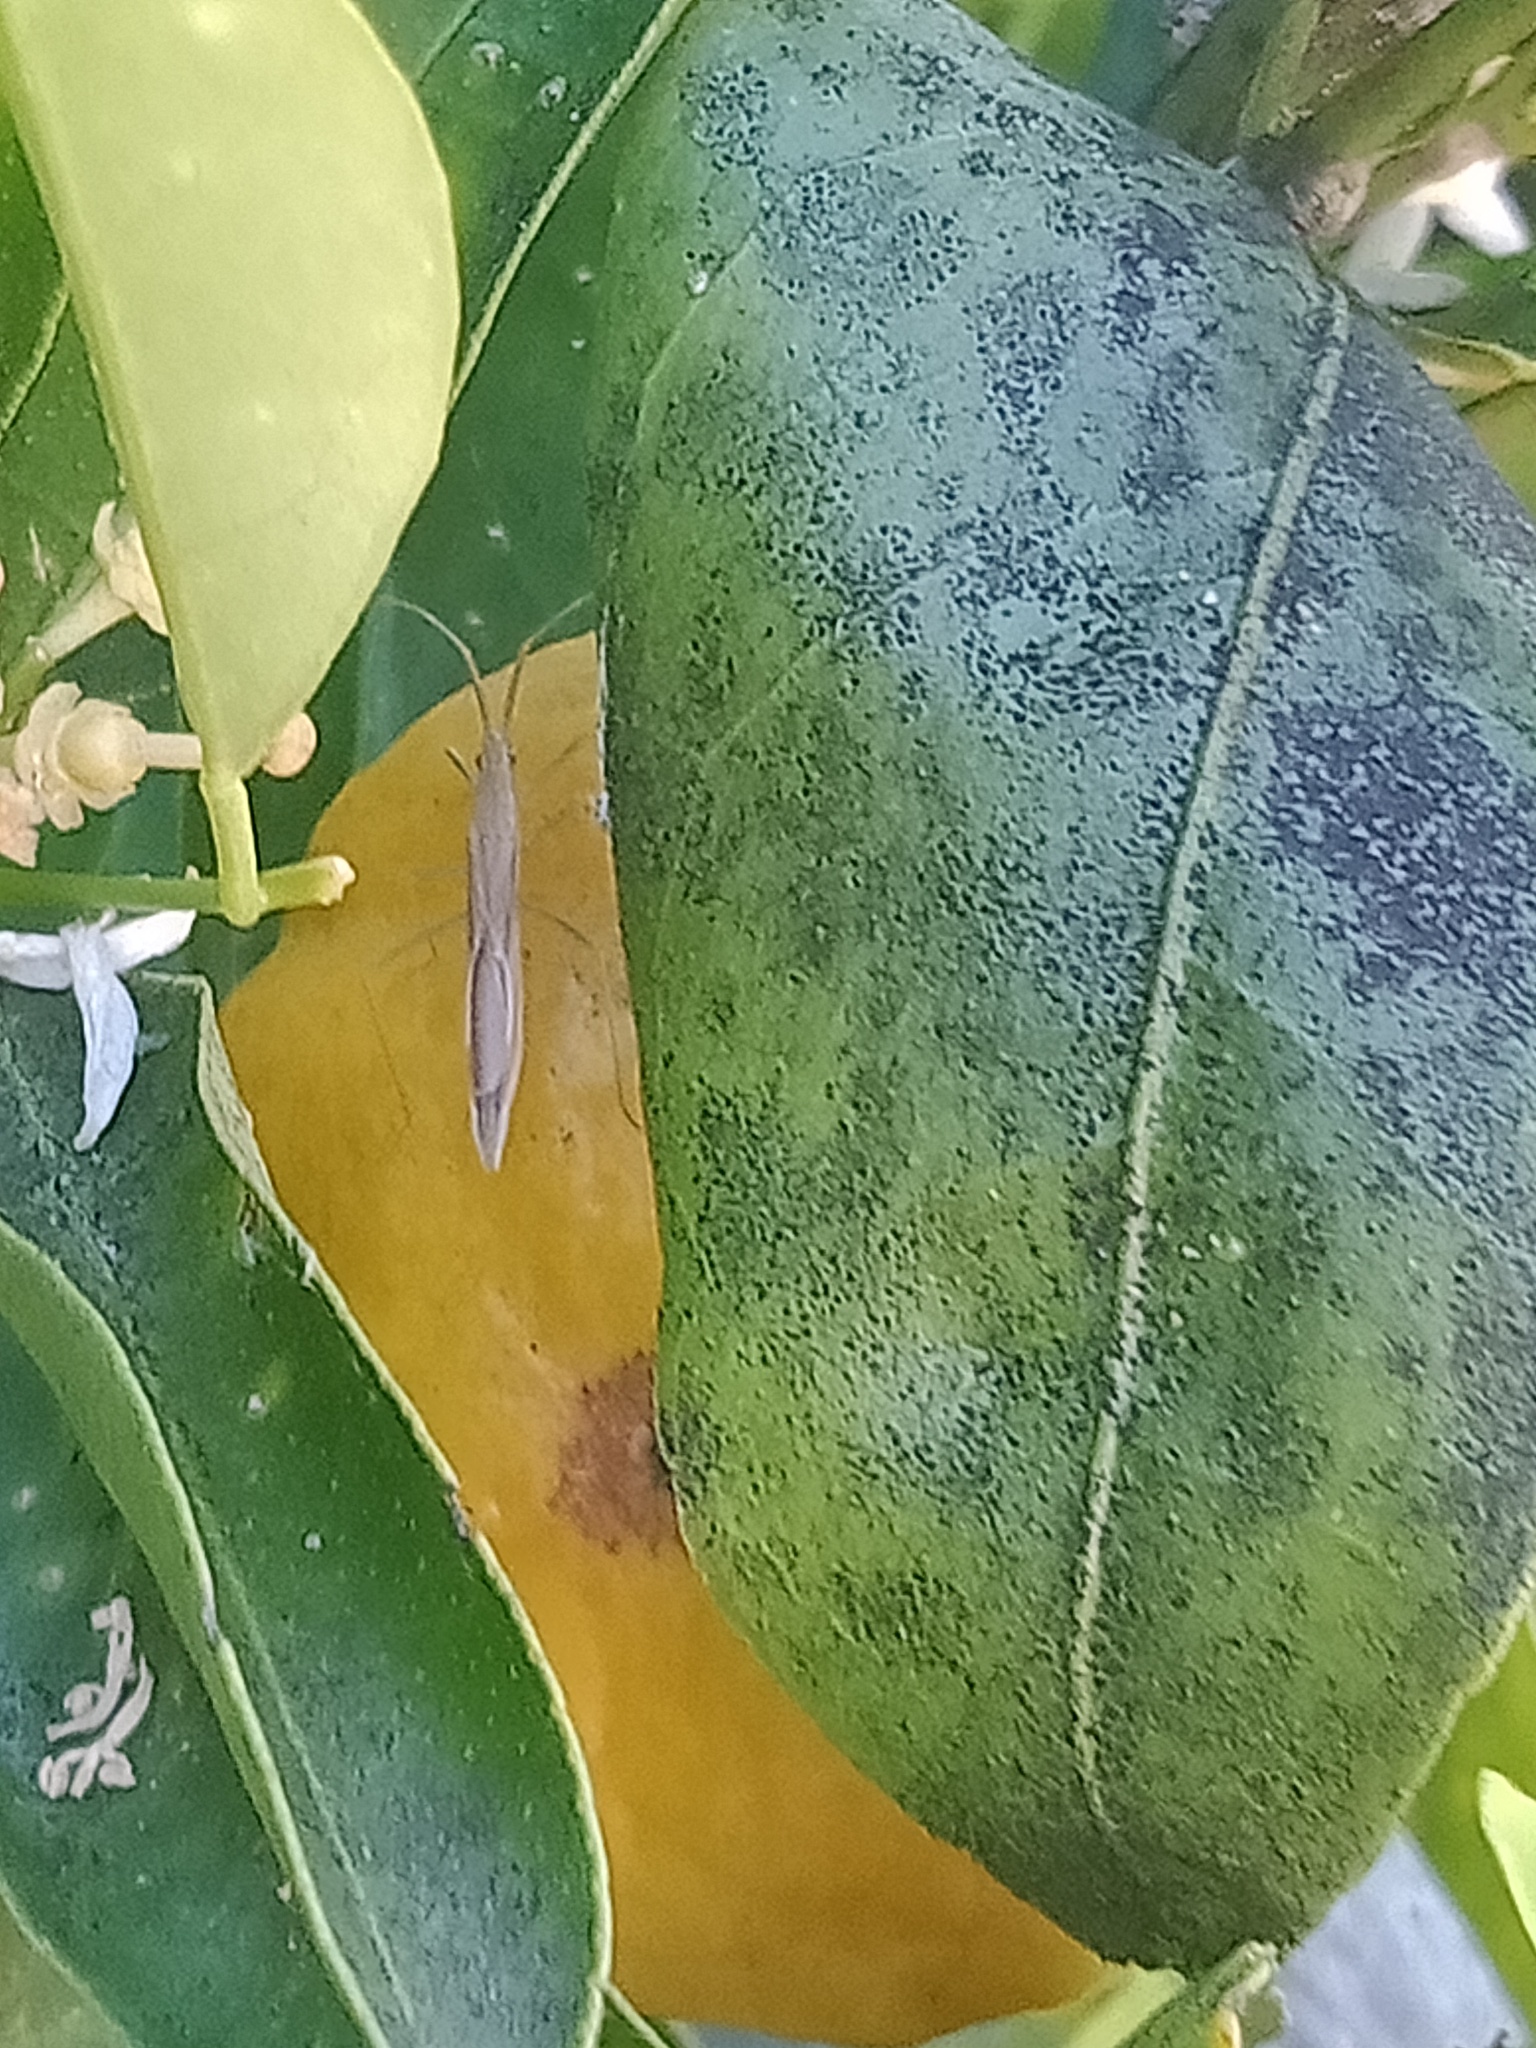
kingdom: Animalia
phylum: Arthropoda
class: Insecta
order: Hemiptera
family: Alydidae
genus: Mutusca
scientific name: Mutusca brevicornis
